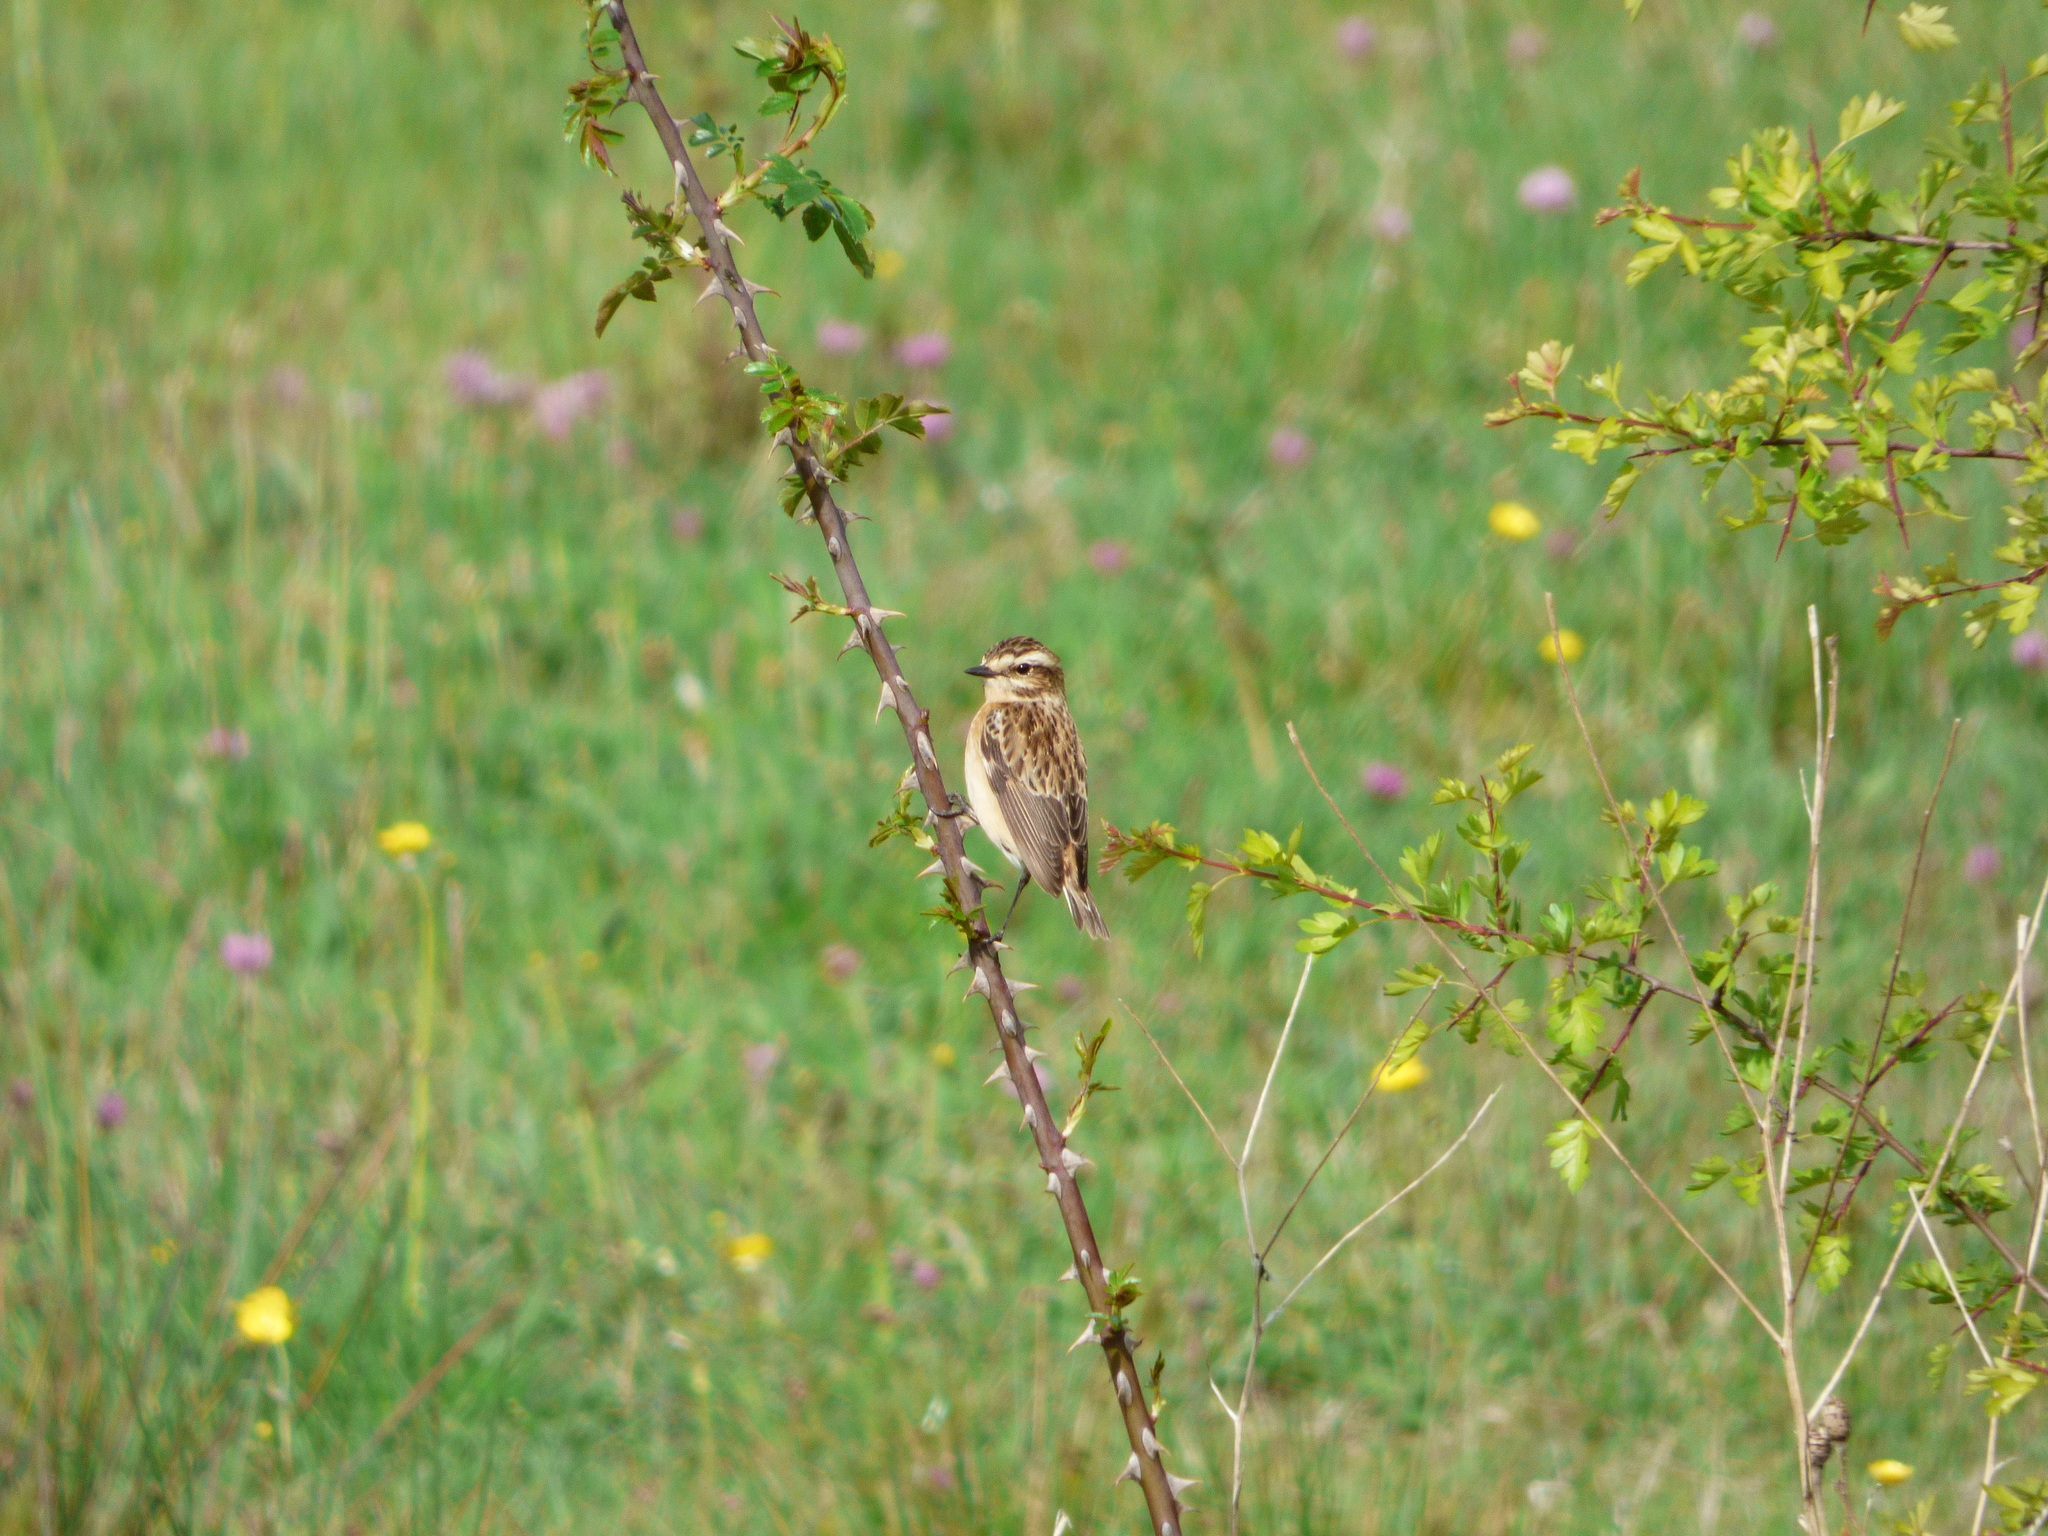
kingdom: Animalia
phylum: Chordata
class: Aves
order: Passeriformes
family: Muscicapidae
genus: Saxicola
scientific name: Saxicola rubetra
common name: Whinchat
